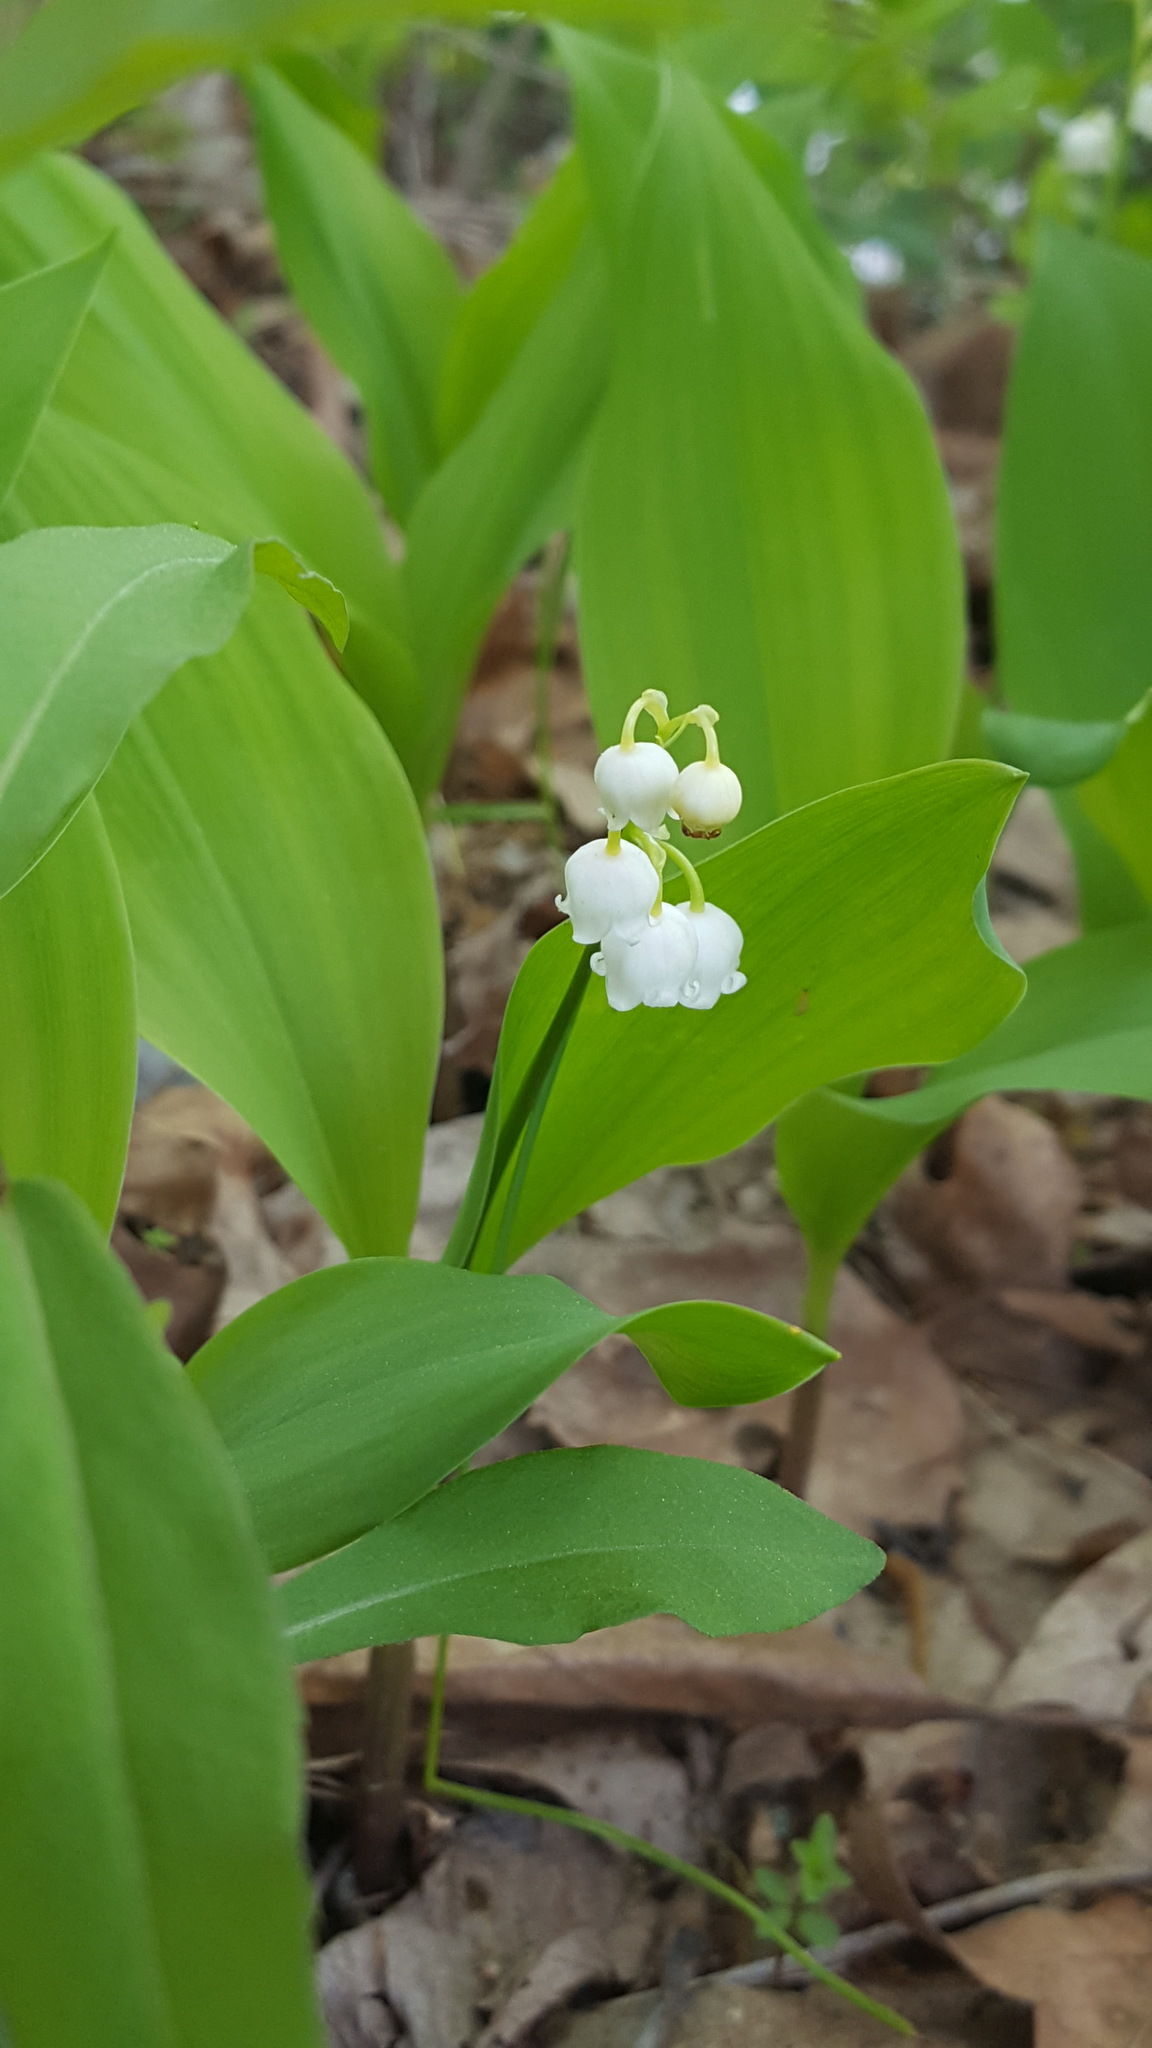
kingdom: Plantae
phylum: Tracheophyta
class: Liliopsida
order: Asparagales
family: Asparagaceae
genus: Convallaria
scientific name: Convallaria majalis
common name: Lily-of-the-valley
